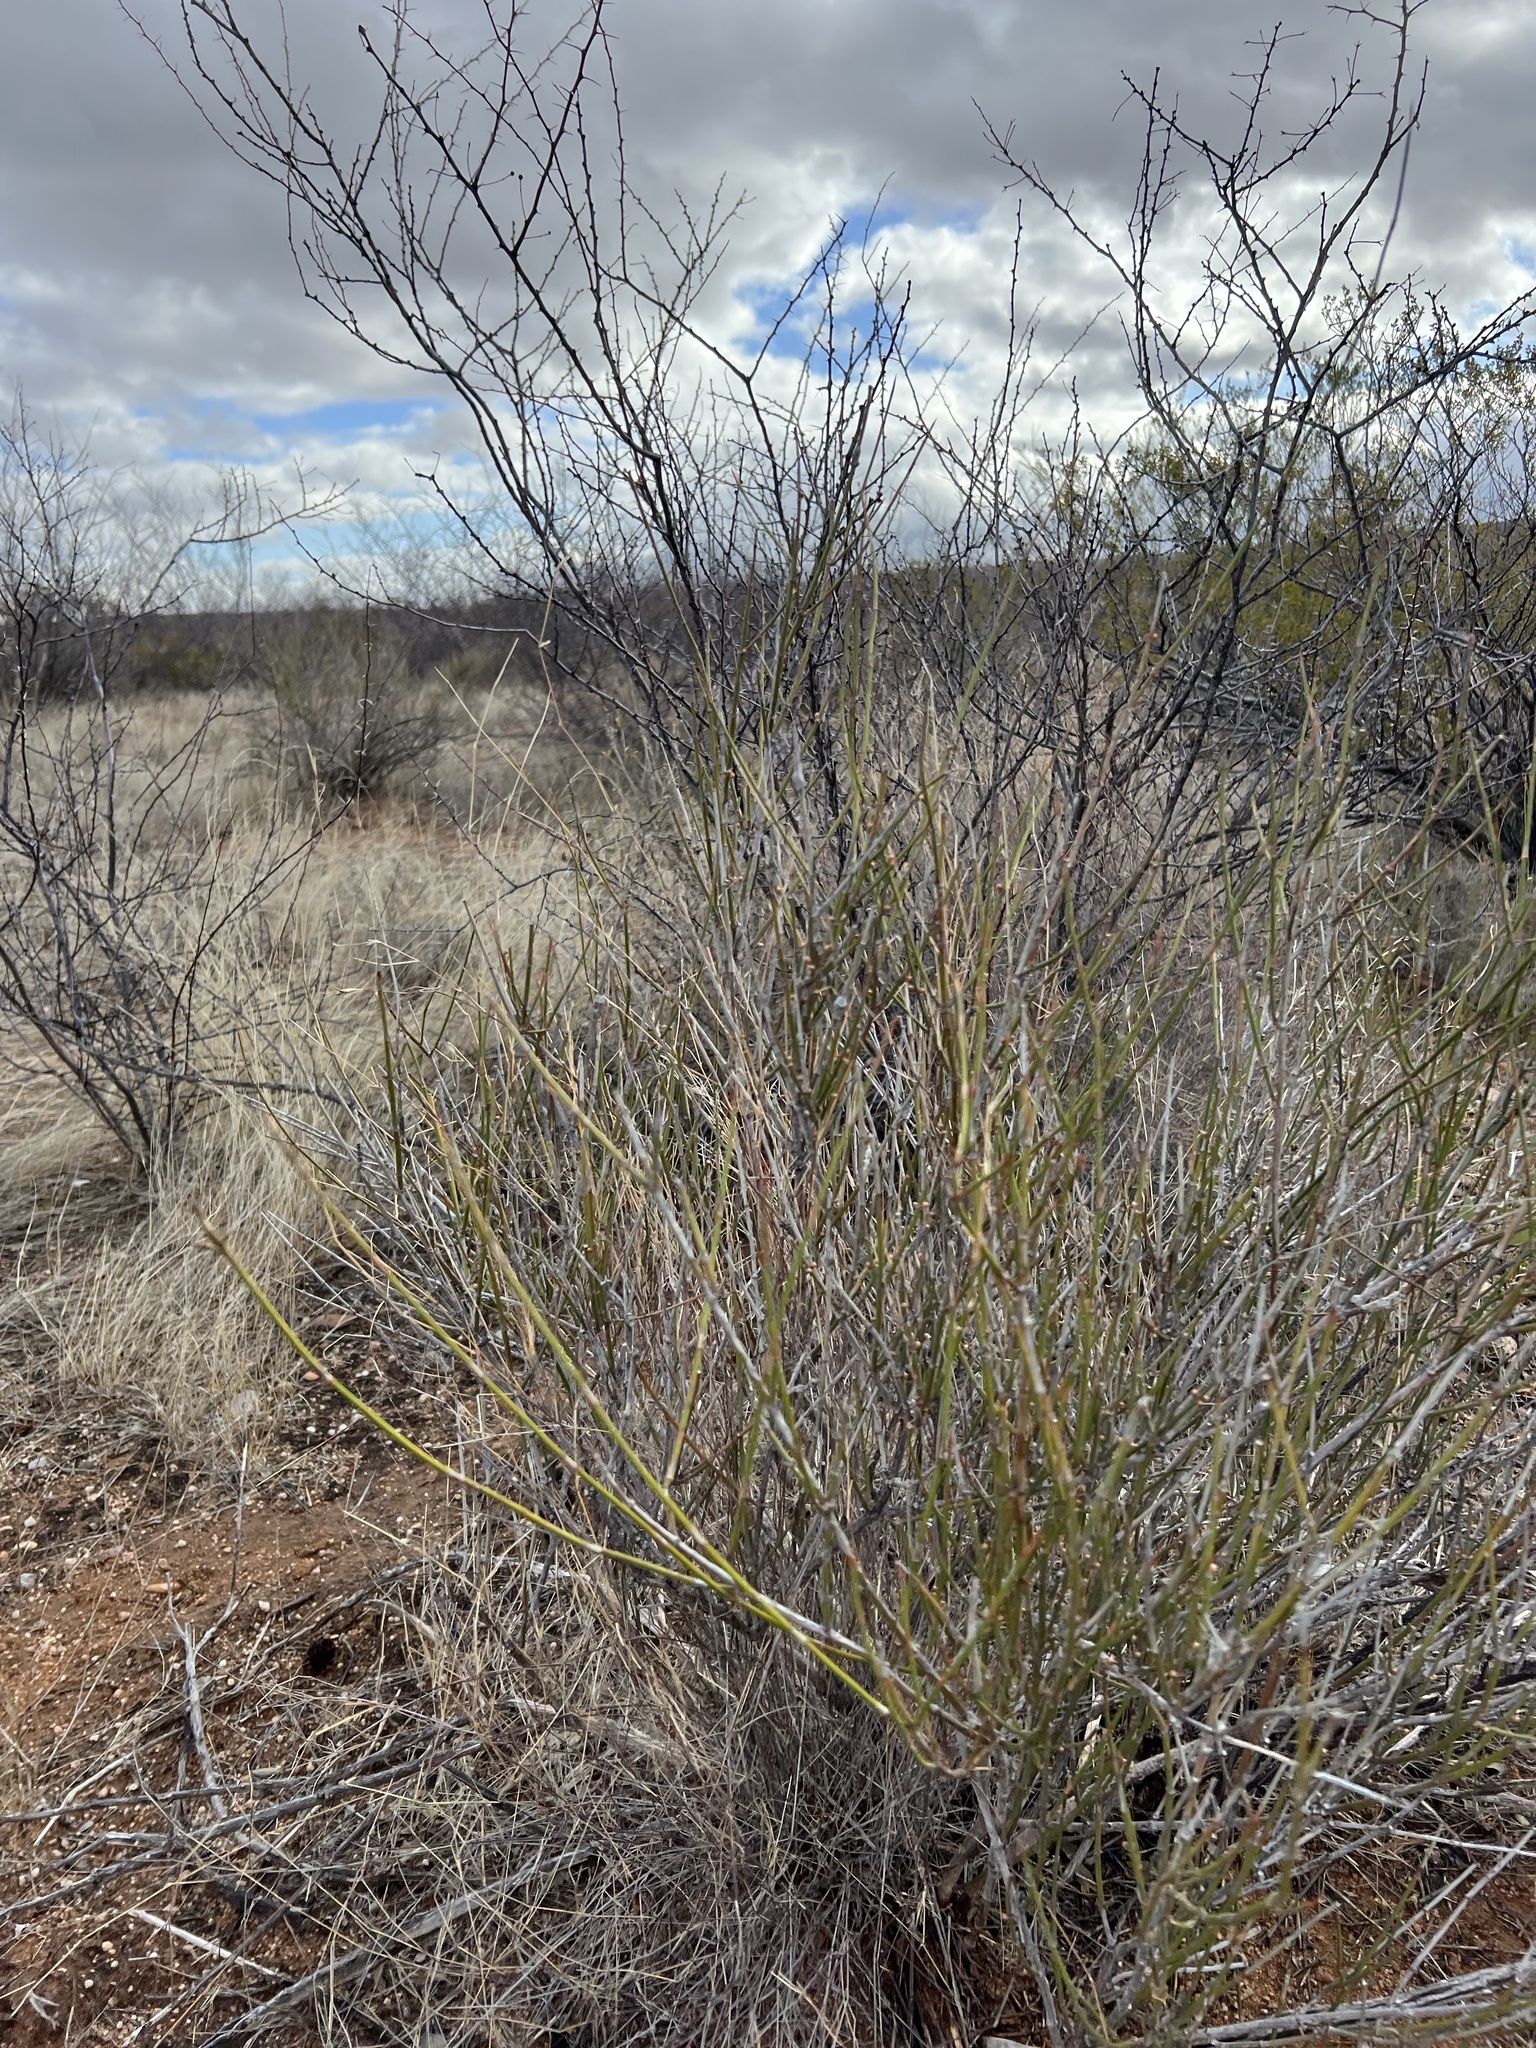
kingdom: Plantae
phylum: Tracheophyta
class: Gnetopsida
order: Ephedrales
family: Ephedraceae
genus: Ephedra
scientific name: Ephedra trifurca
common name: Mexican-tea
